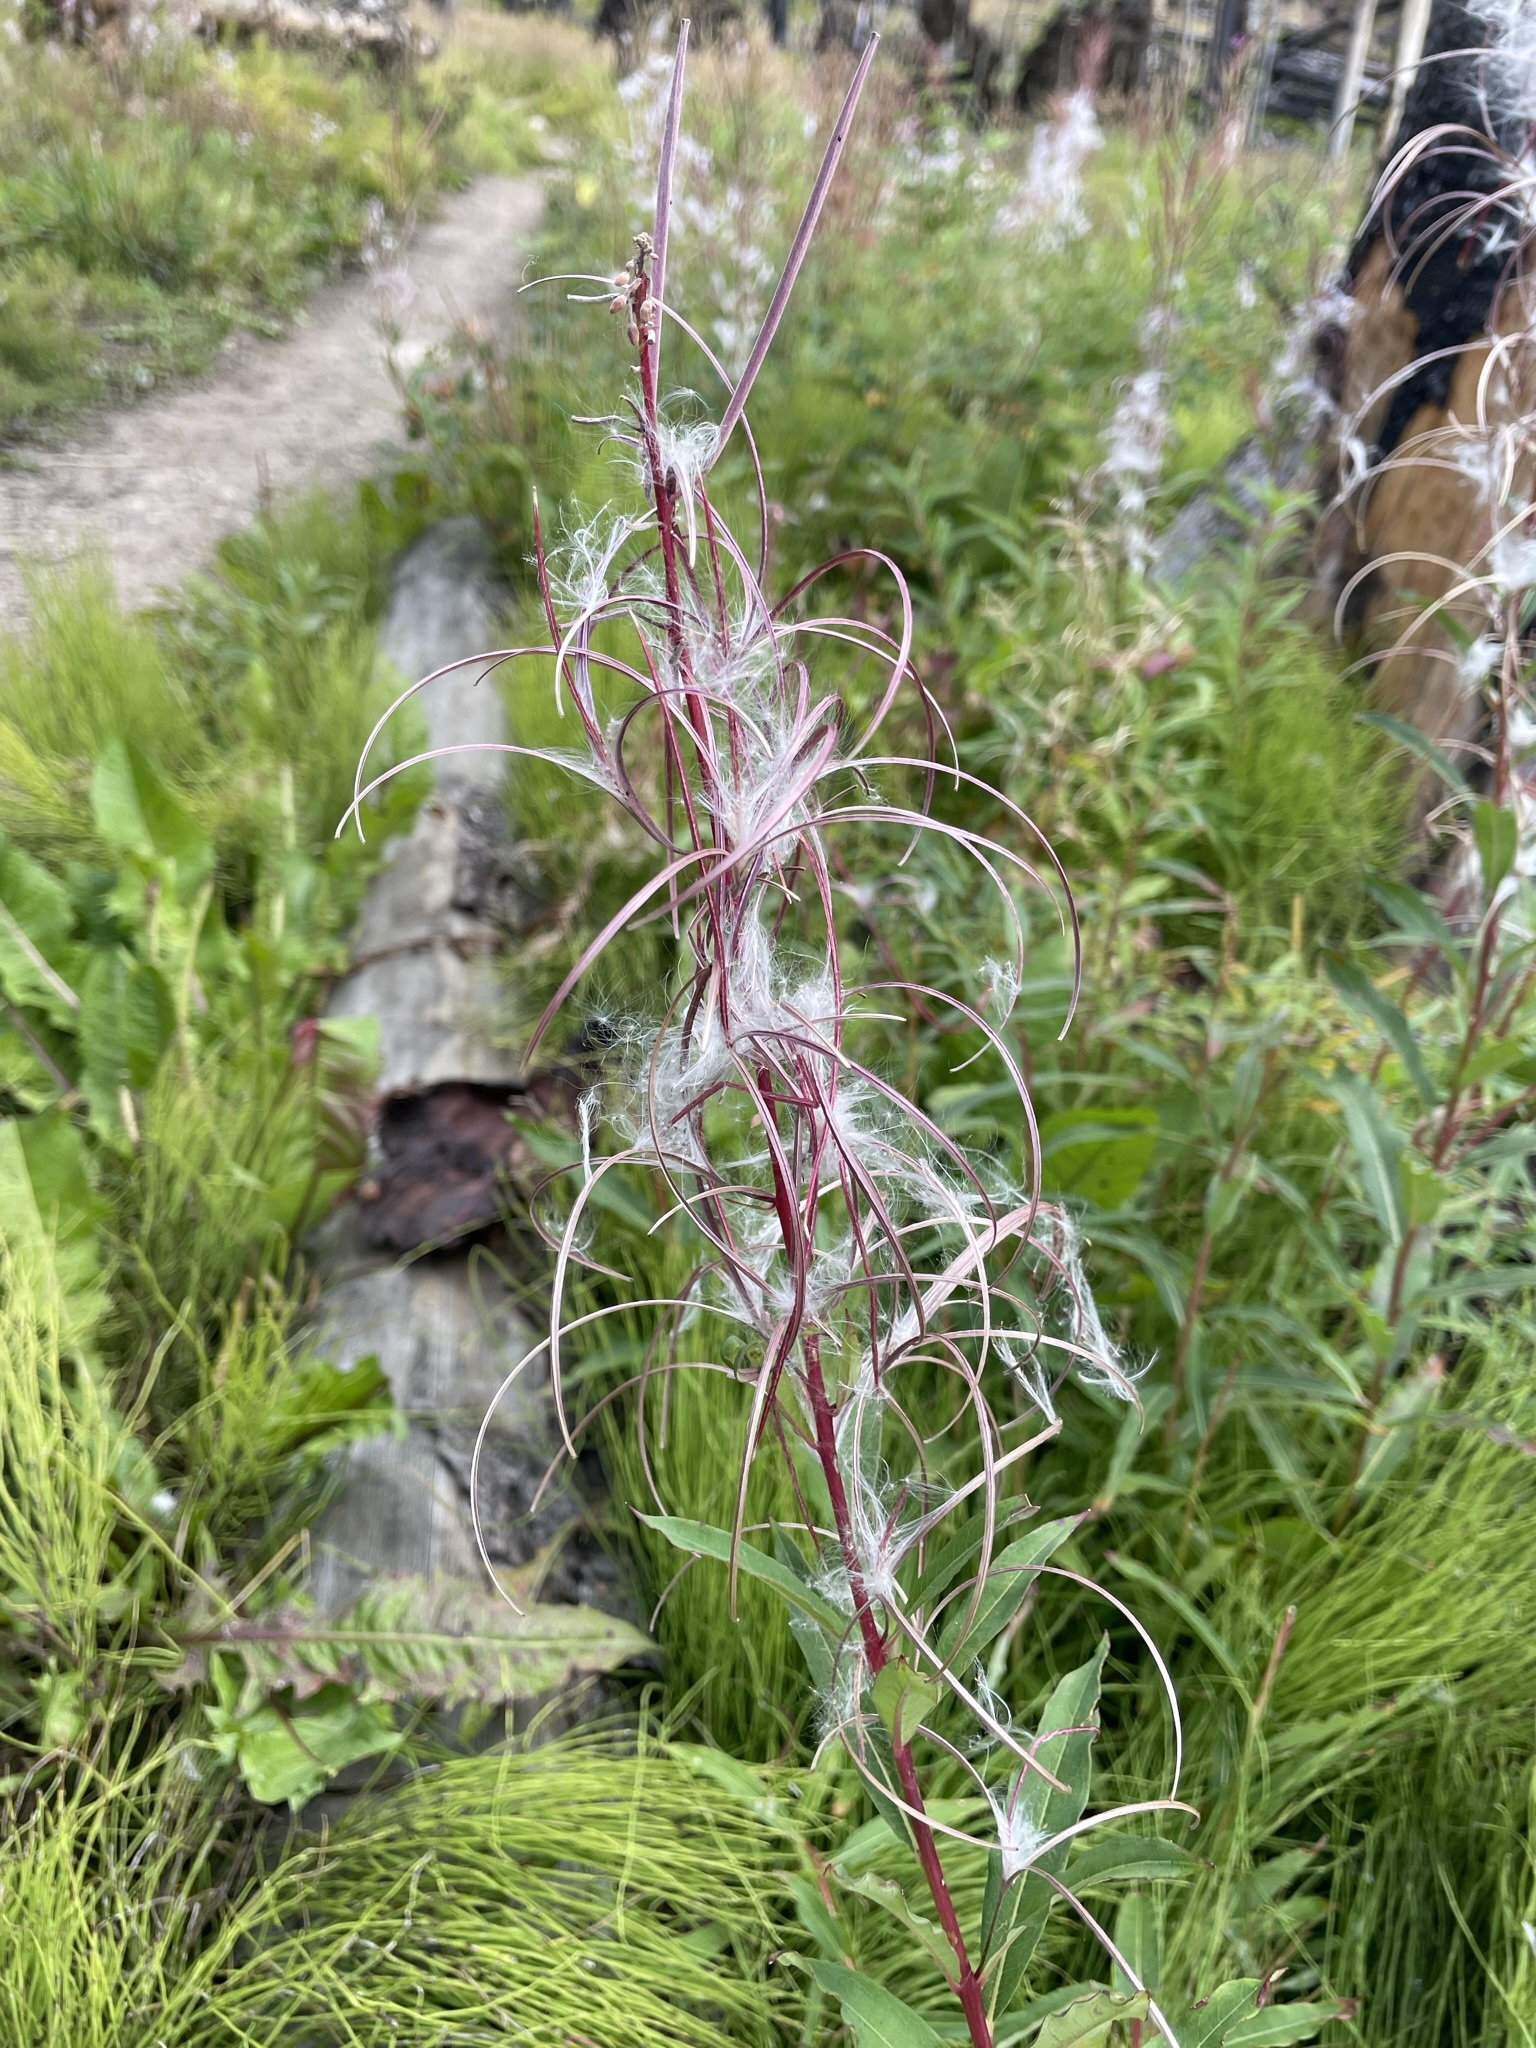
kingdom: Plantae
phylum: Tracheophyta
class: Magnoliopsida
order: Myrtales
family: Onagraceae
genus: Chamaenerion
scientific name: Chamaenerion angustifolium
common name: Fireweed
